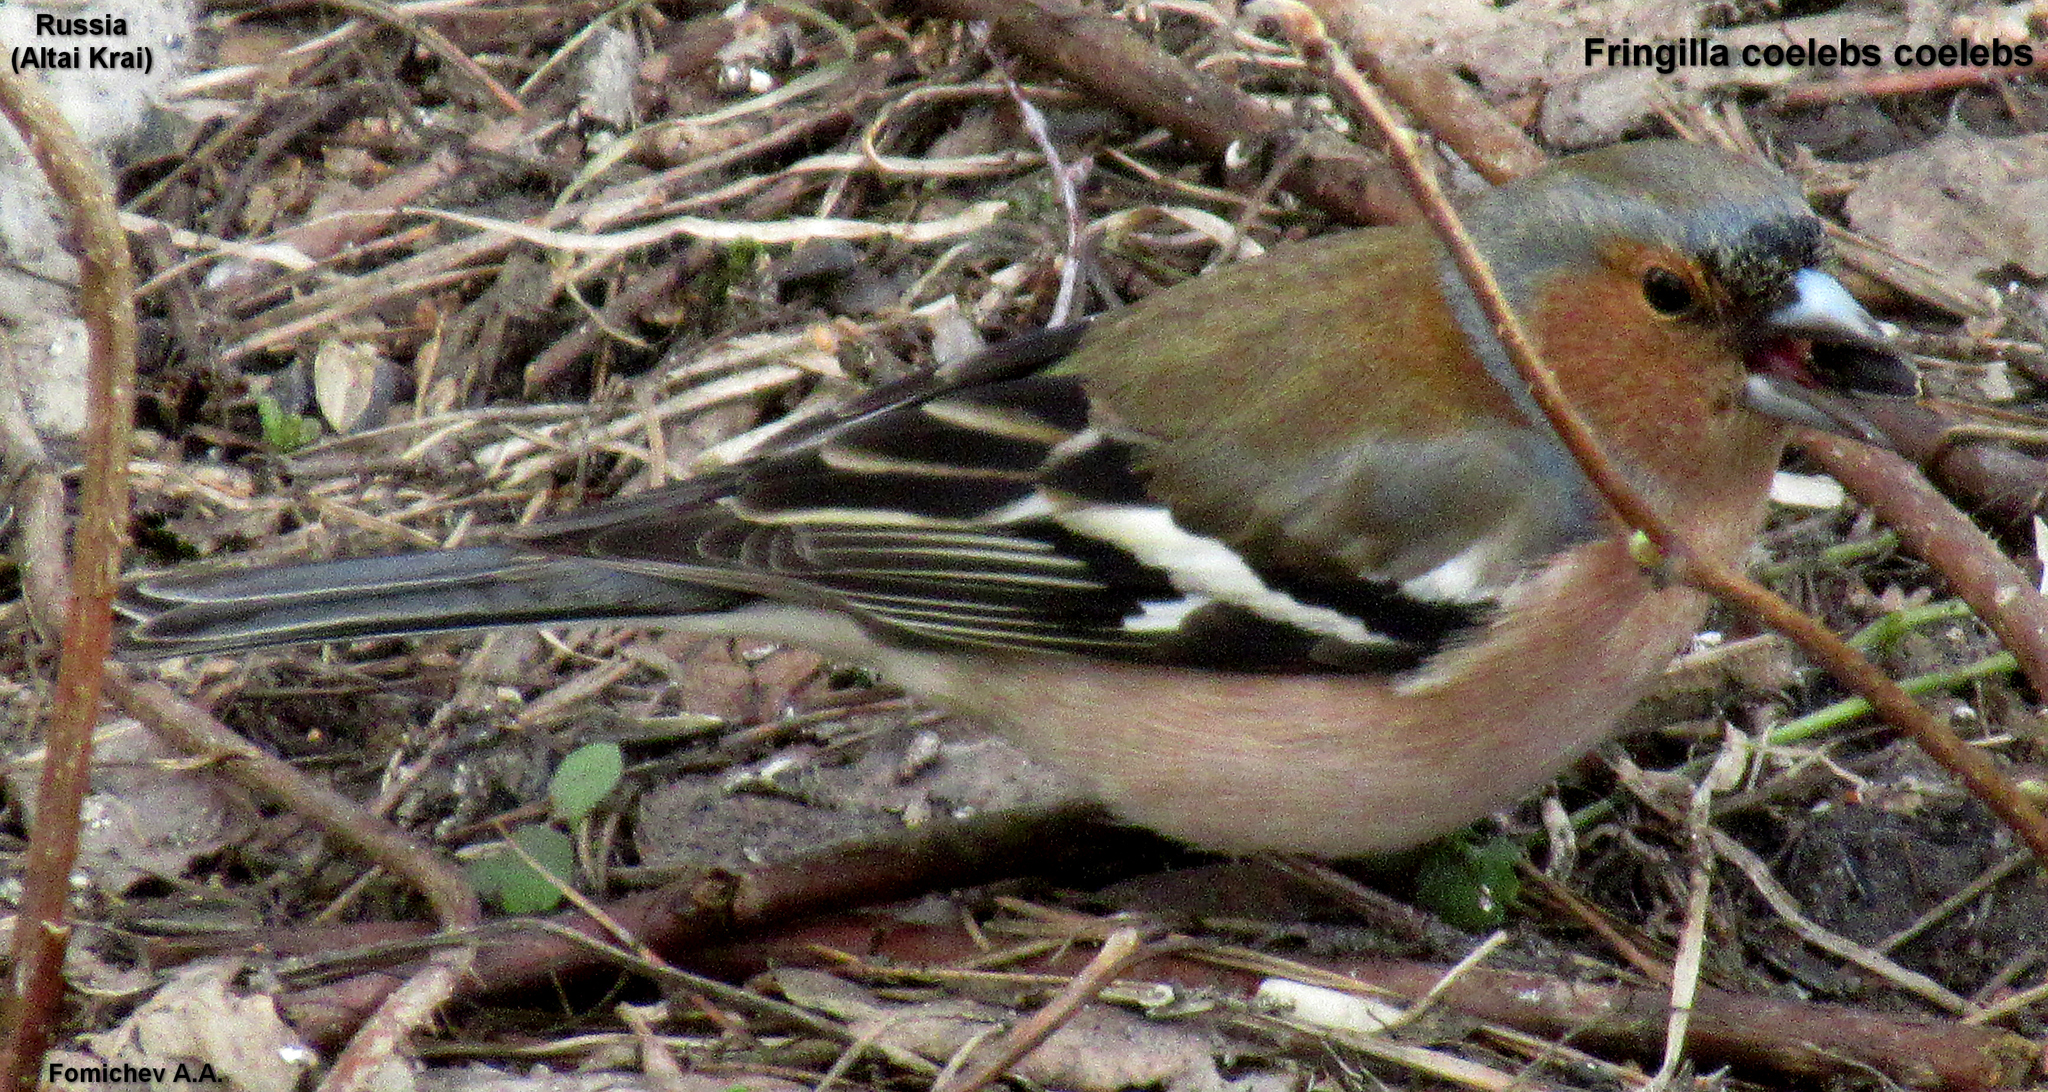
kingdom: Animalia
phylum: Chordata
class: Aves
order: Passeriformes
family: Fringillidae
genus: Fringilla
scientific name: Fringilla coelebs
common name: Common chaffinch
